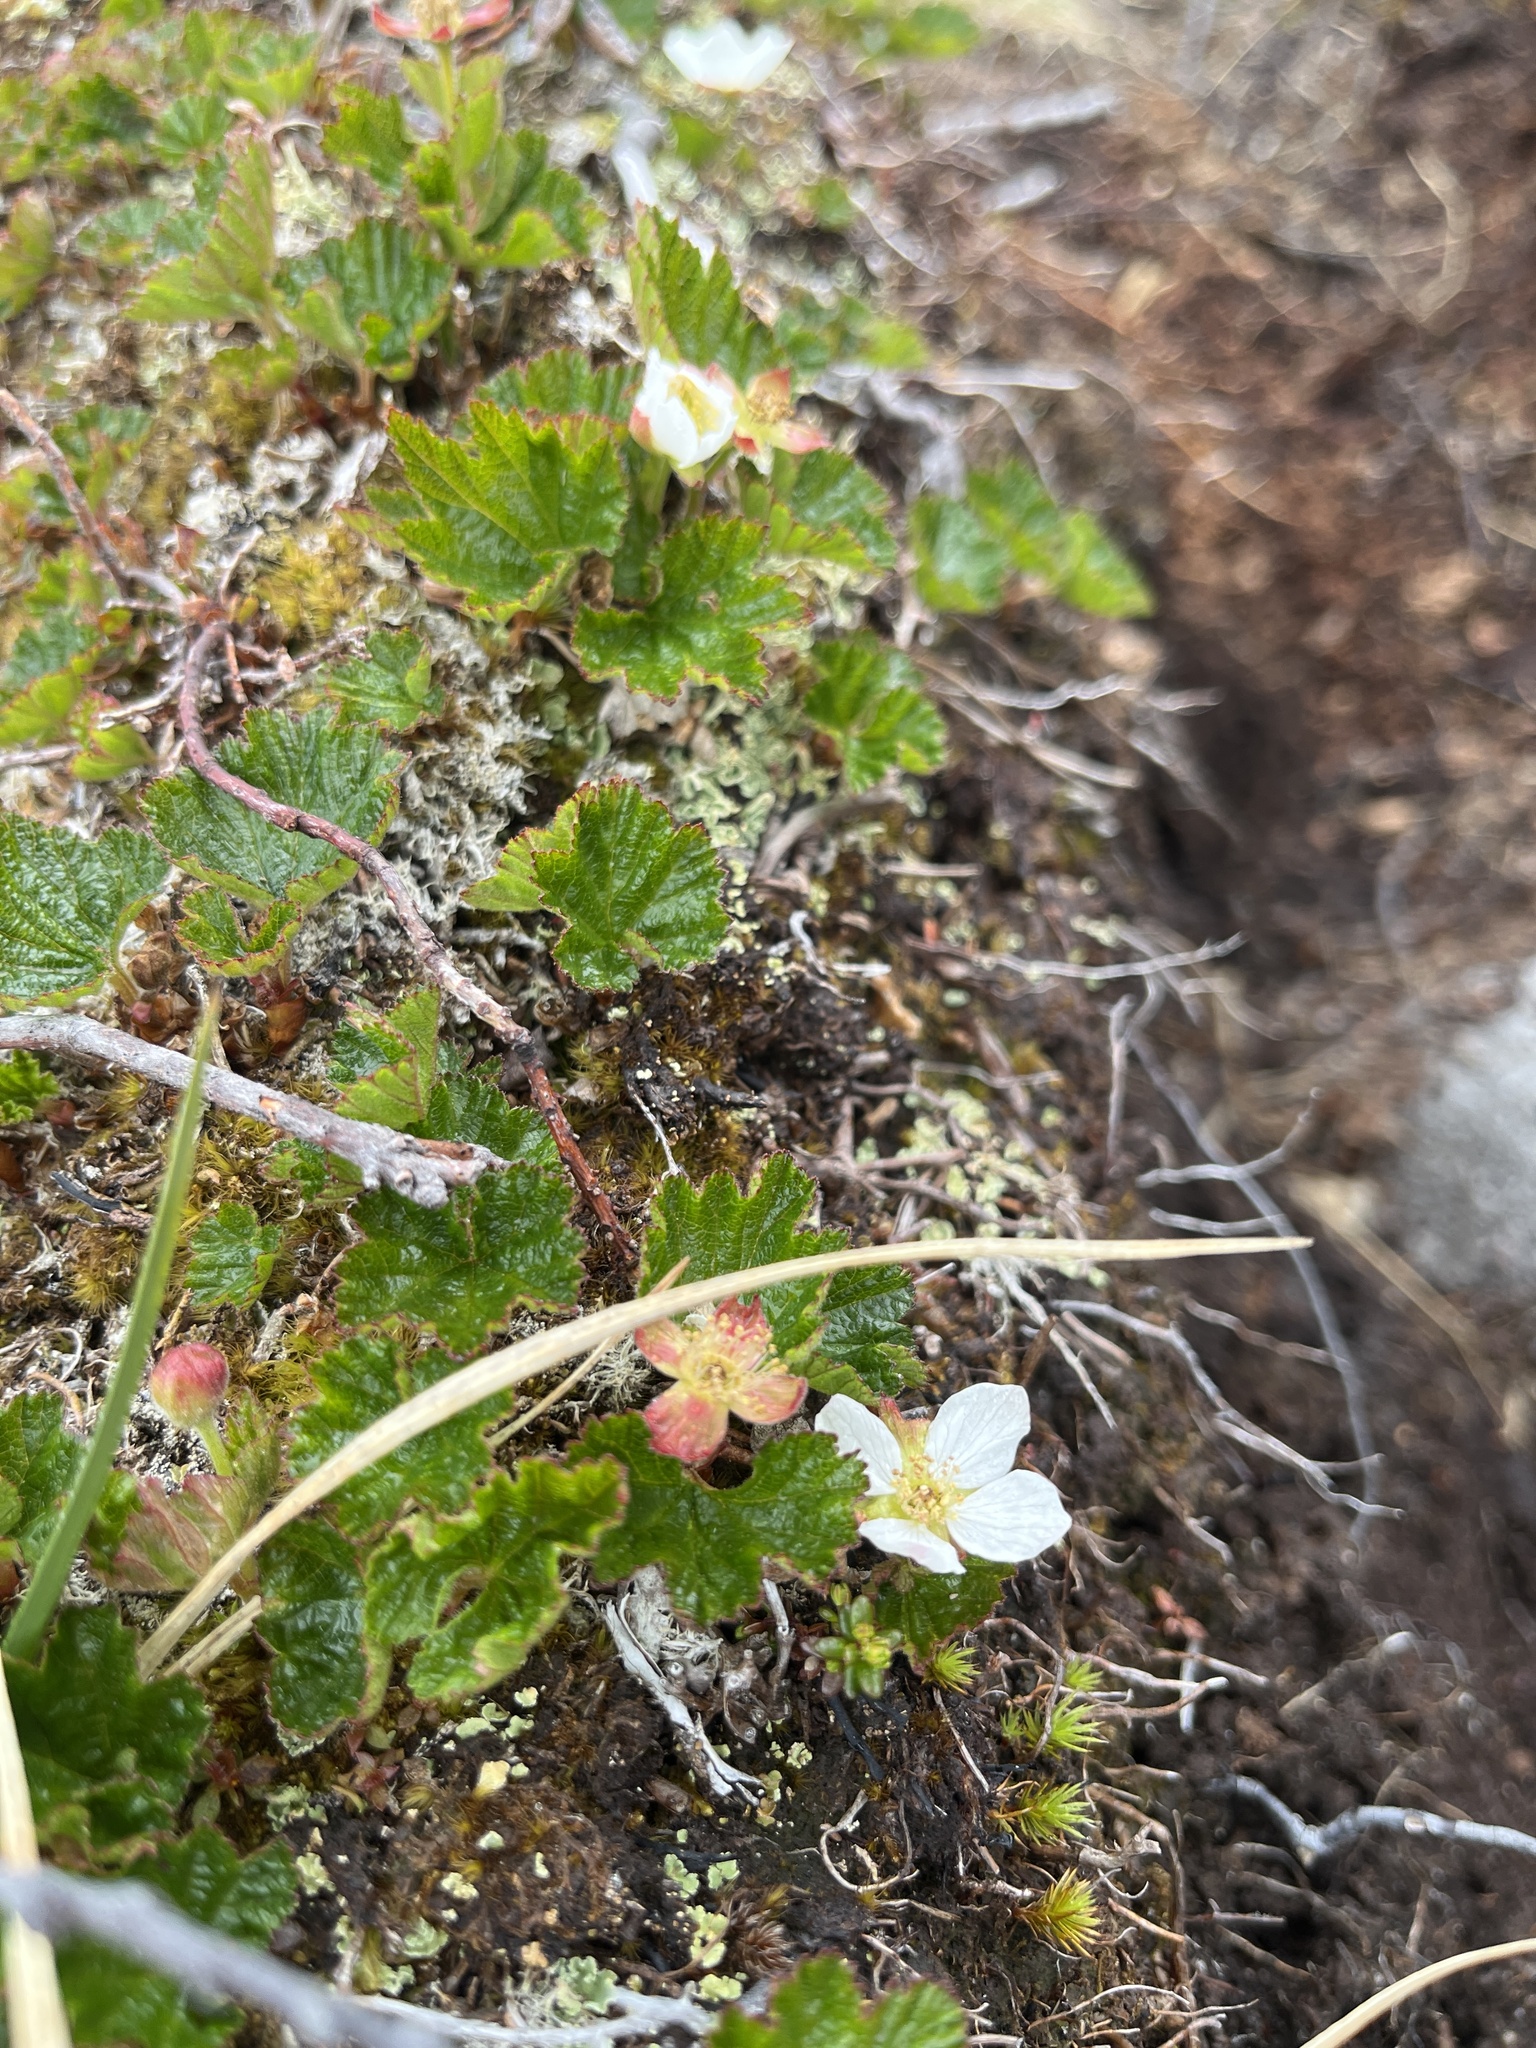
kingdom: Plantae
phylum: Tracheophyta
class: Magnoliopsida
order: Rosales
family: Rosaceae
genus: Rubus
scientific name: Rubus chamaemorus
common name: Cloudberry
